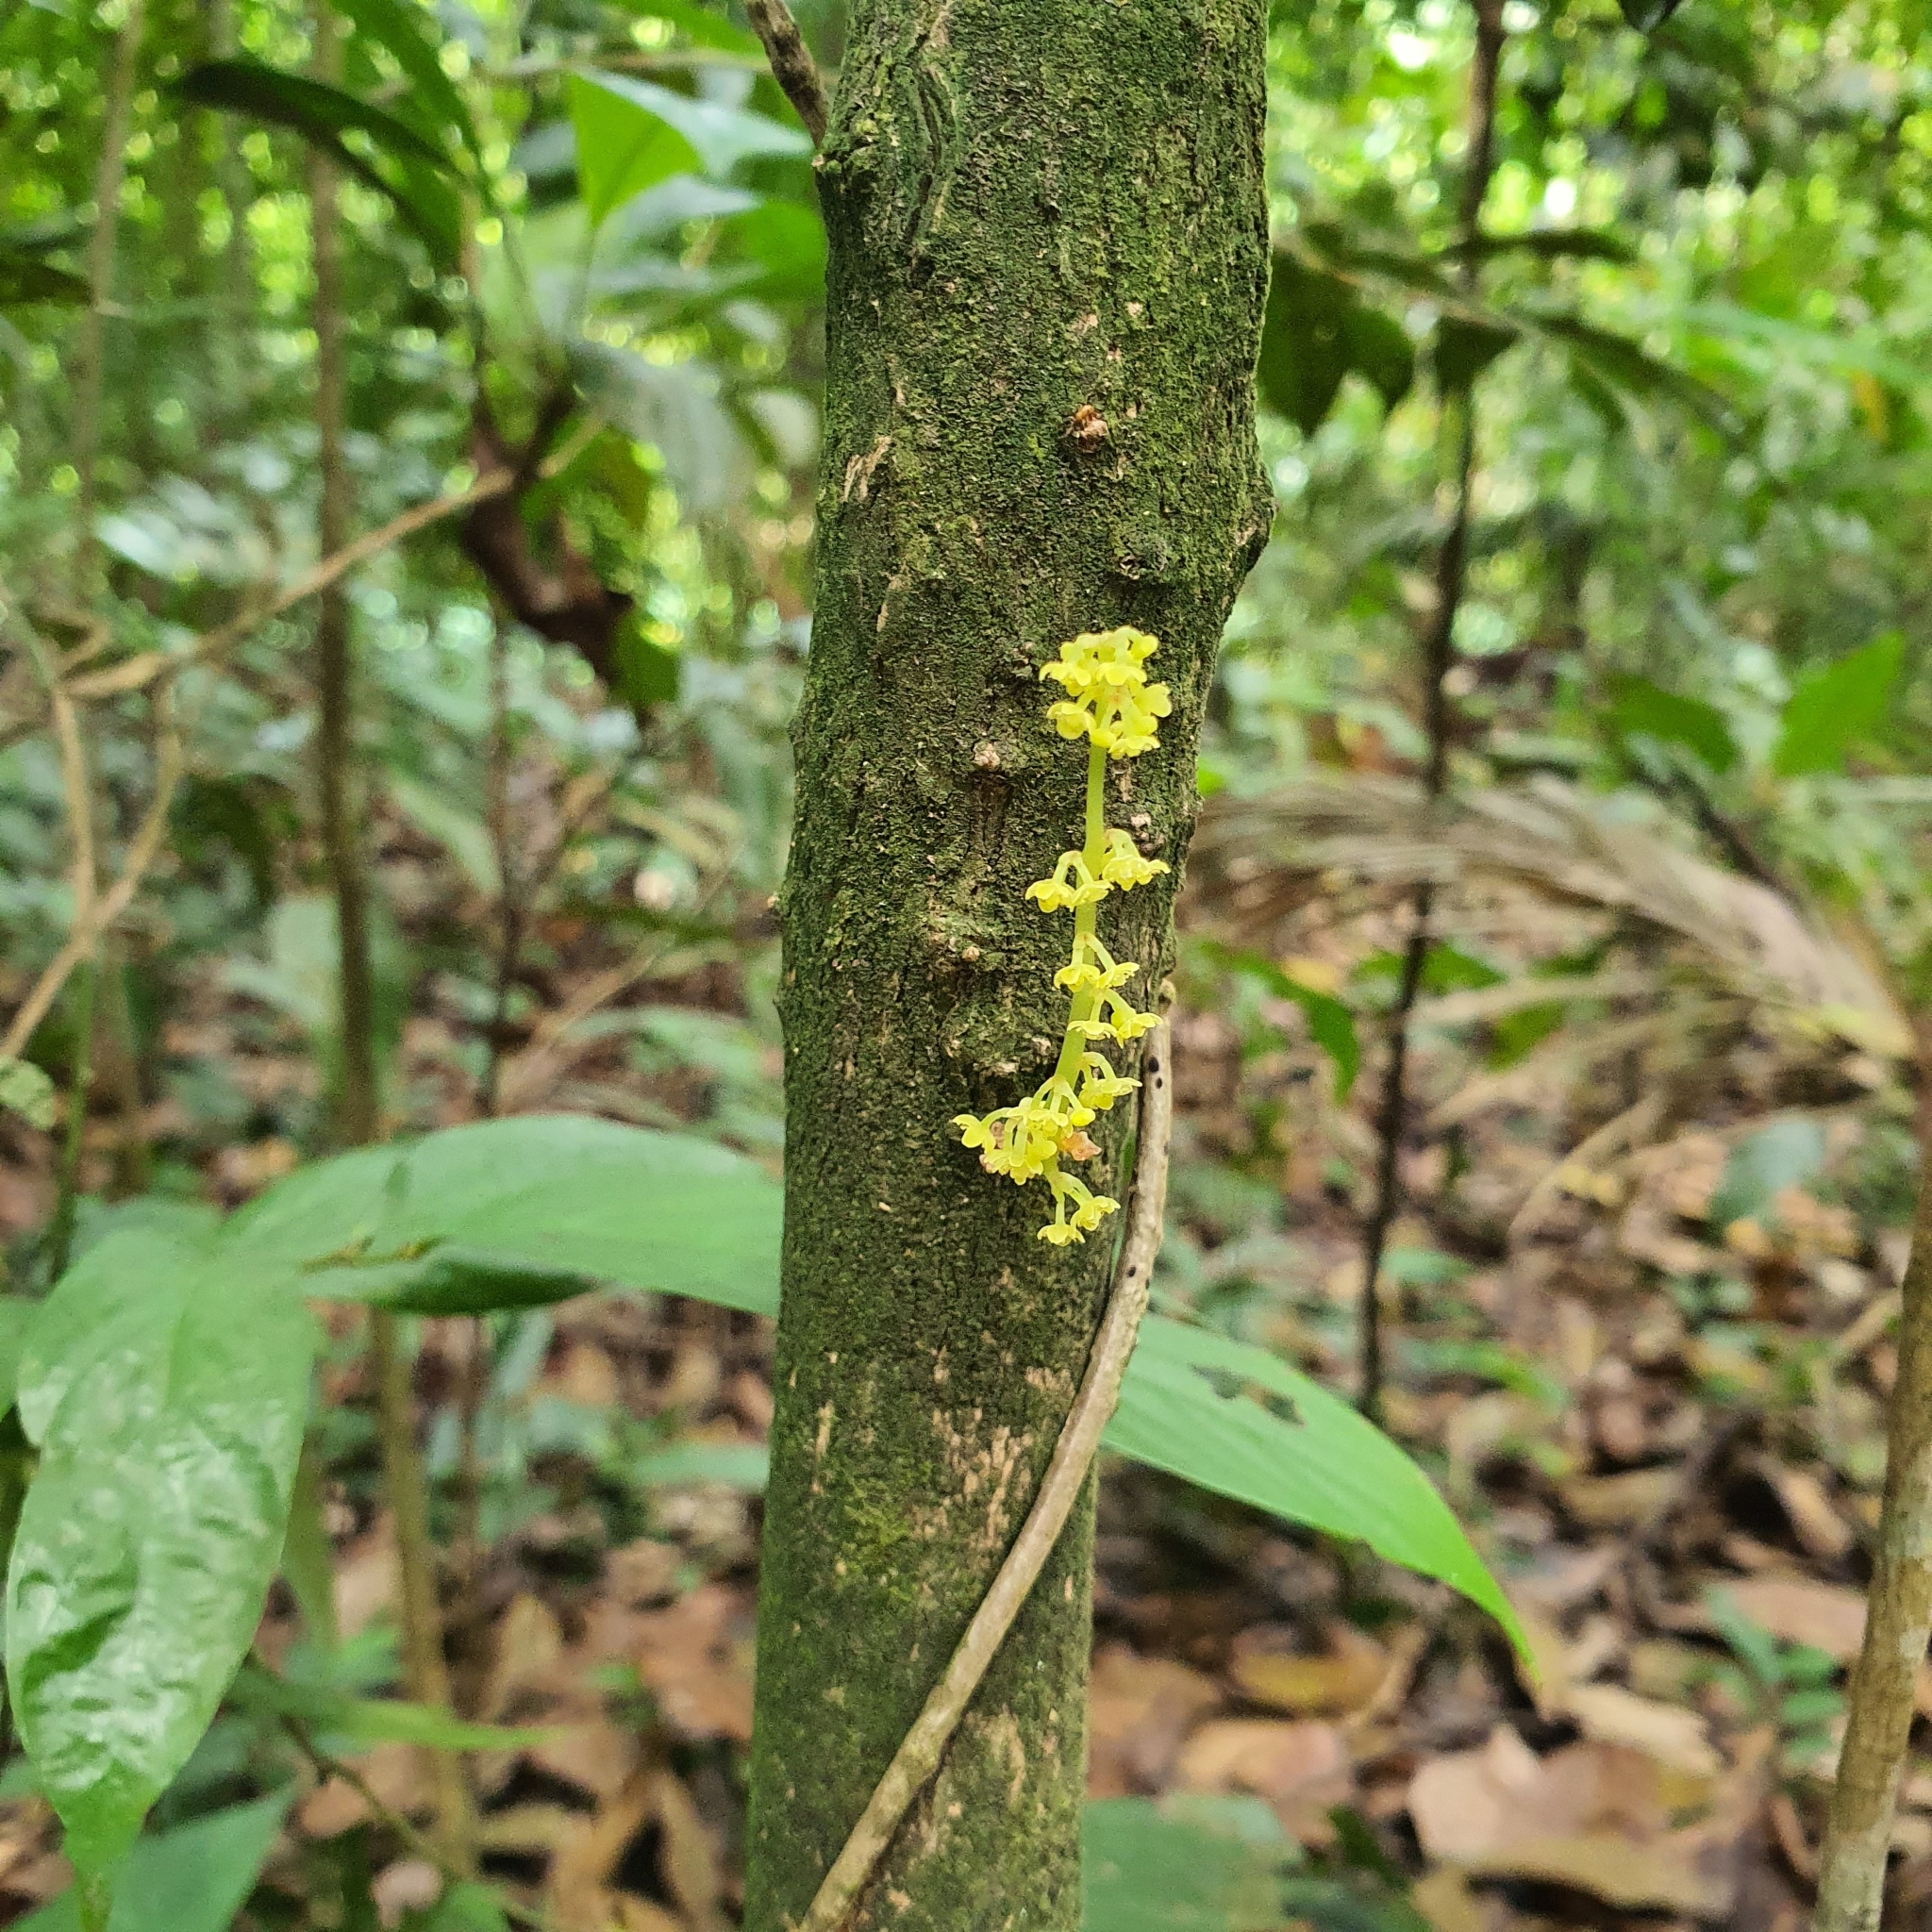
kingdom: Plantae
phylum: Tracheophyta
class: Magnoliopsida
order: Malpighiales
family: Phyllanthaceae
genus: Baccaurea
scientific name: Baccaurea parviflora
